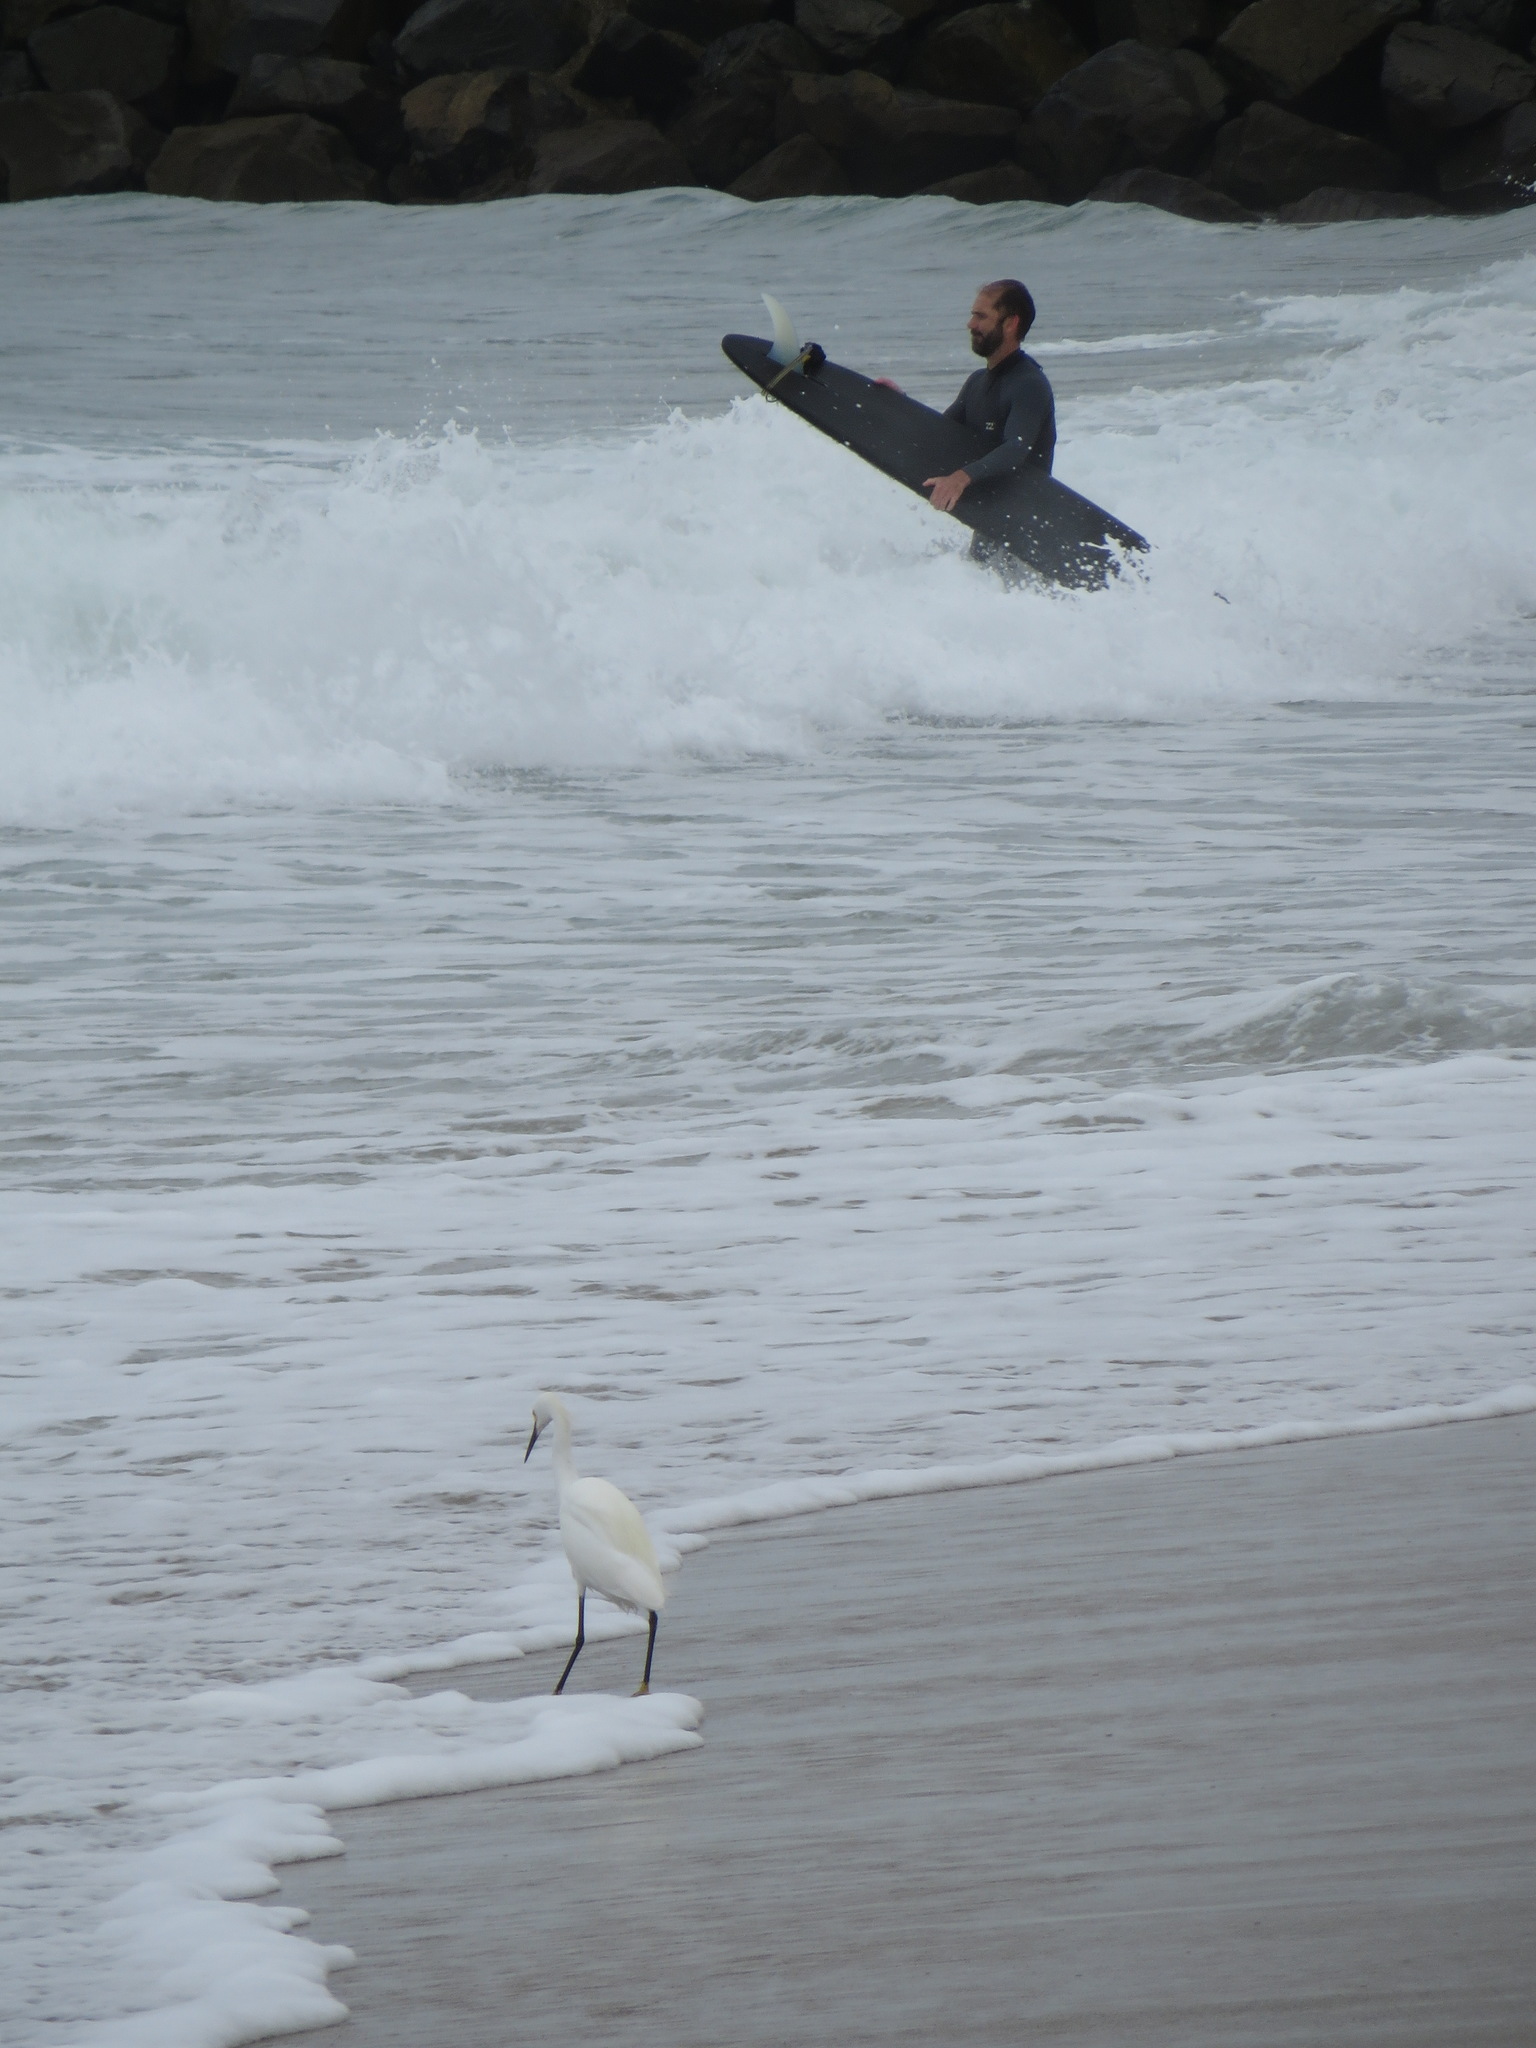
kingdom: Animalia
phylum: Chordata
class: Aves
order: Pelecaniformes
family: Ardeidae
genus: Egretta
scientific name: Egretta thula
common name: Snowy egret
